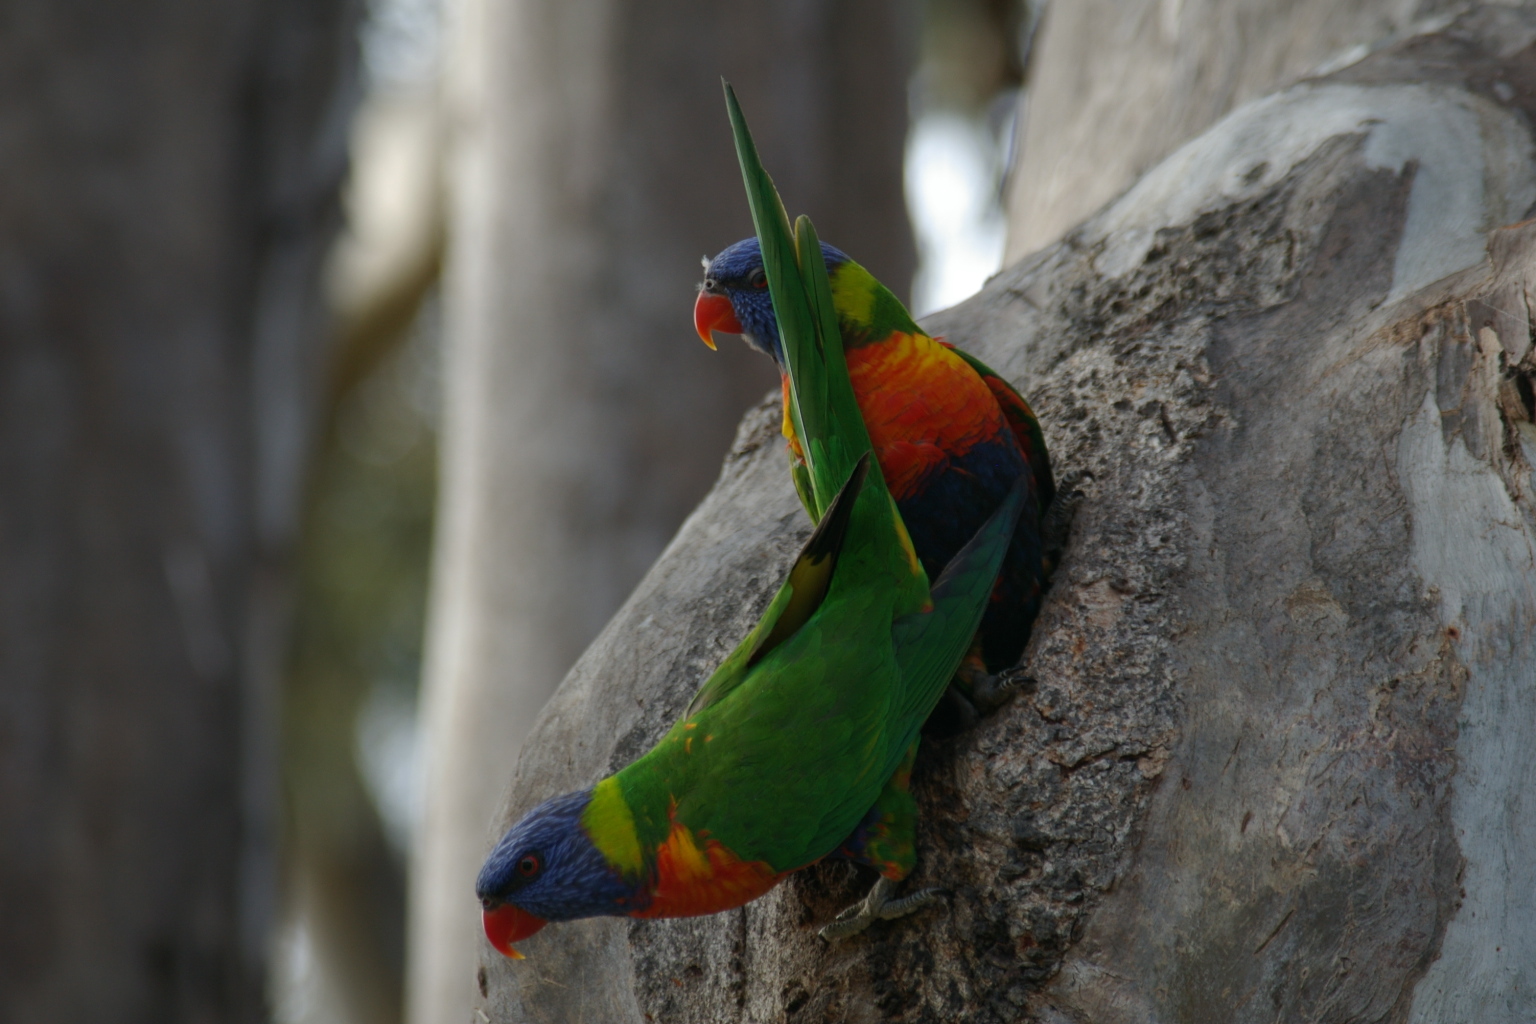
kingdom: Animalia
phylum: Chordata
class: Aves
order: Psittaciformes
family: Psittacidae
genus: Trichoglossus
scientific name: Trichoglossus haematodus
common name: Coconut lorikeet
